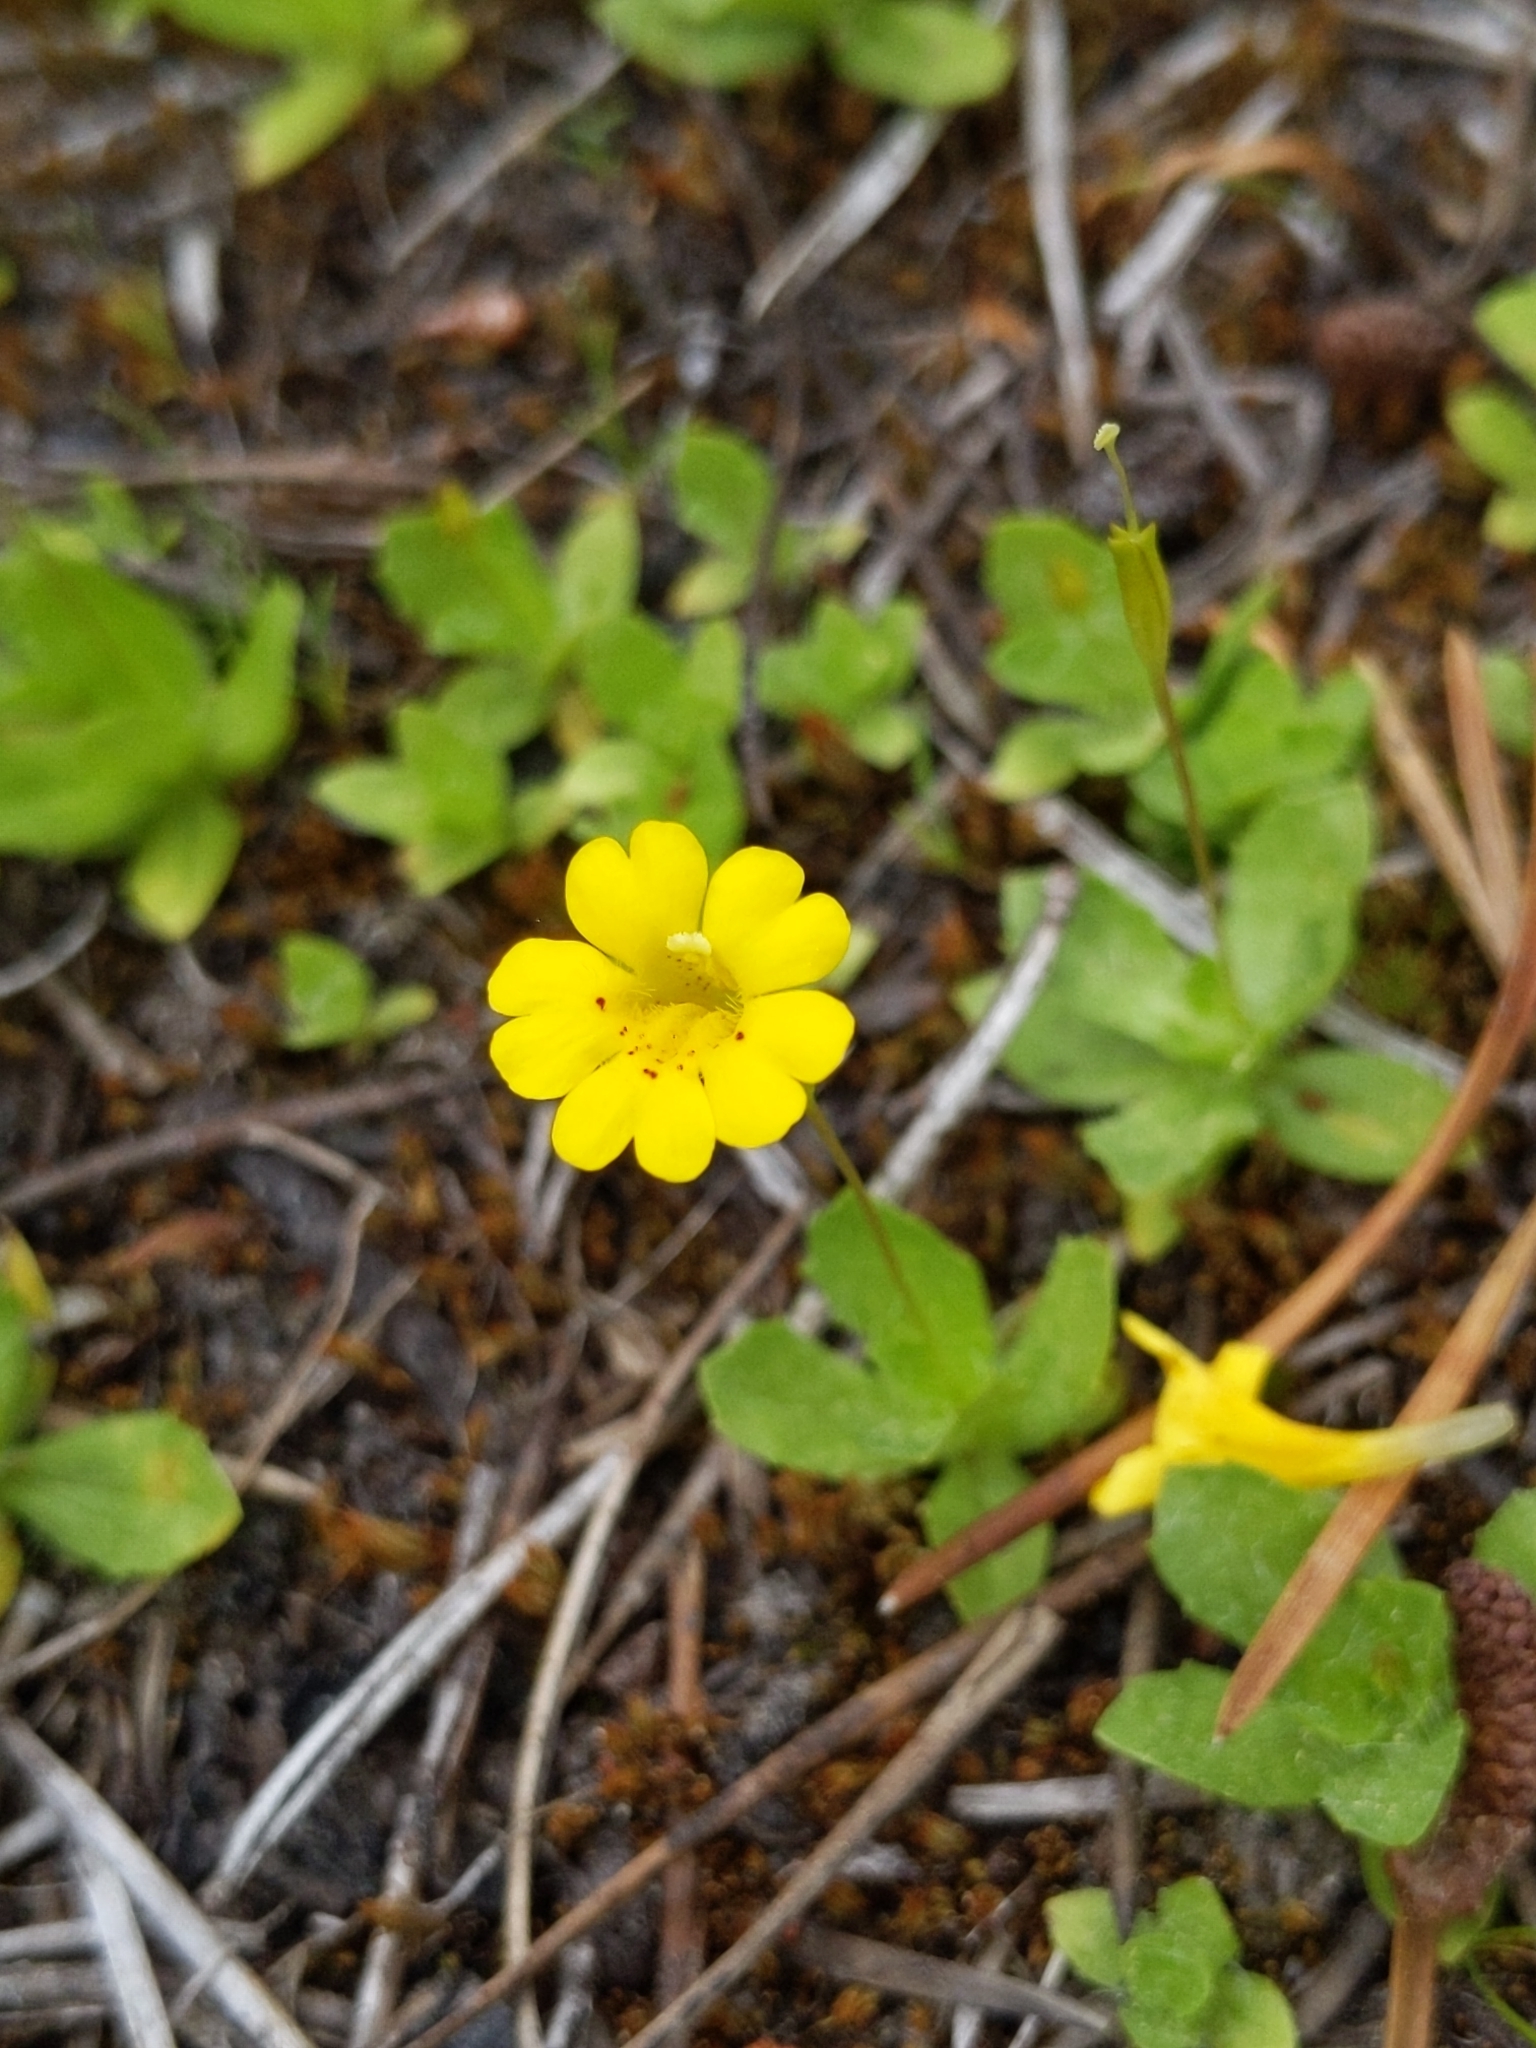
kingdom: Plantae
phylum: Tracheophyta
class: Magnoliopsida
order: Lamiales
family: Phrymaceae
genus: Erythranthe
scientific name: Erythranthe primuloides
